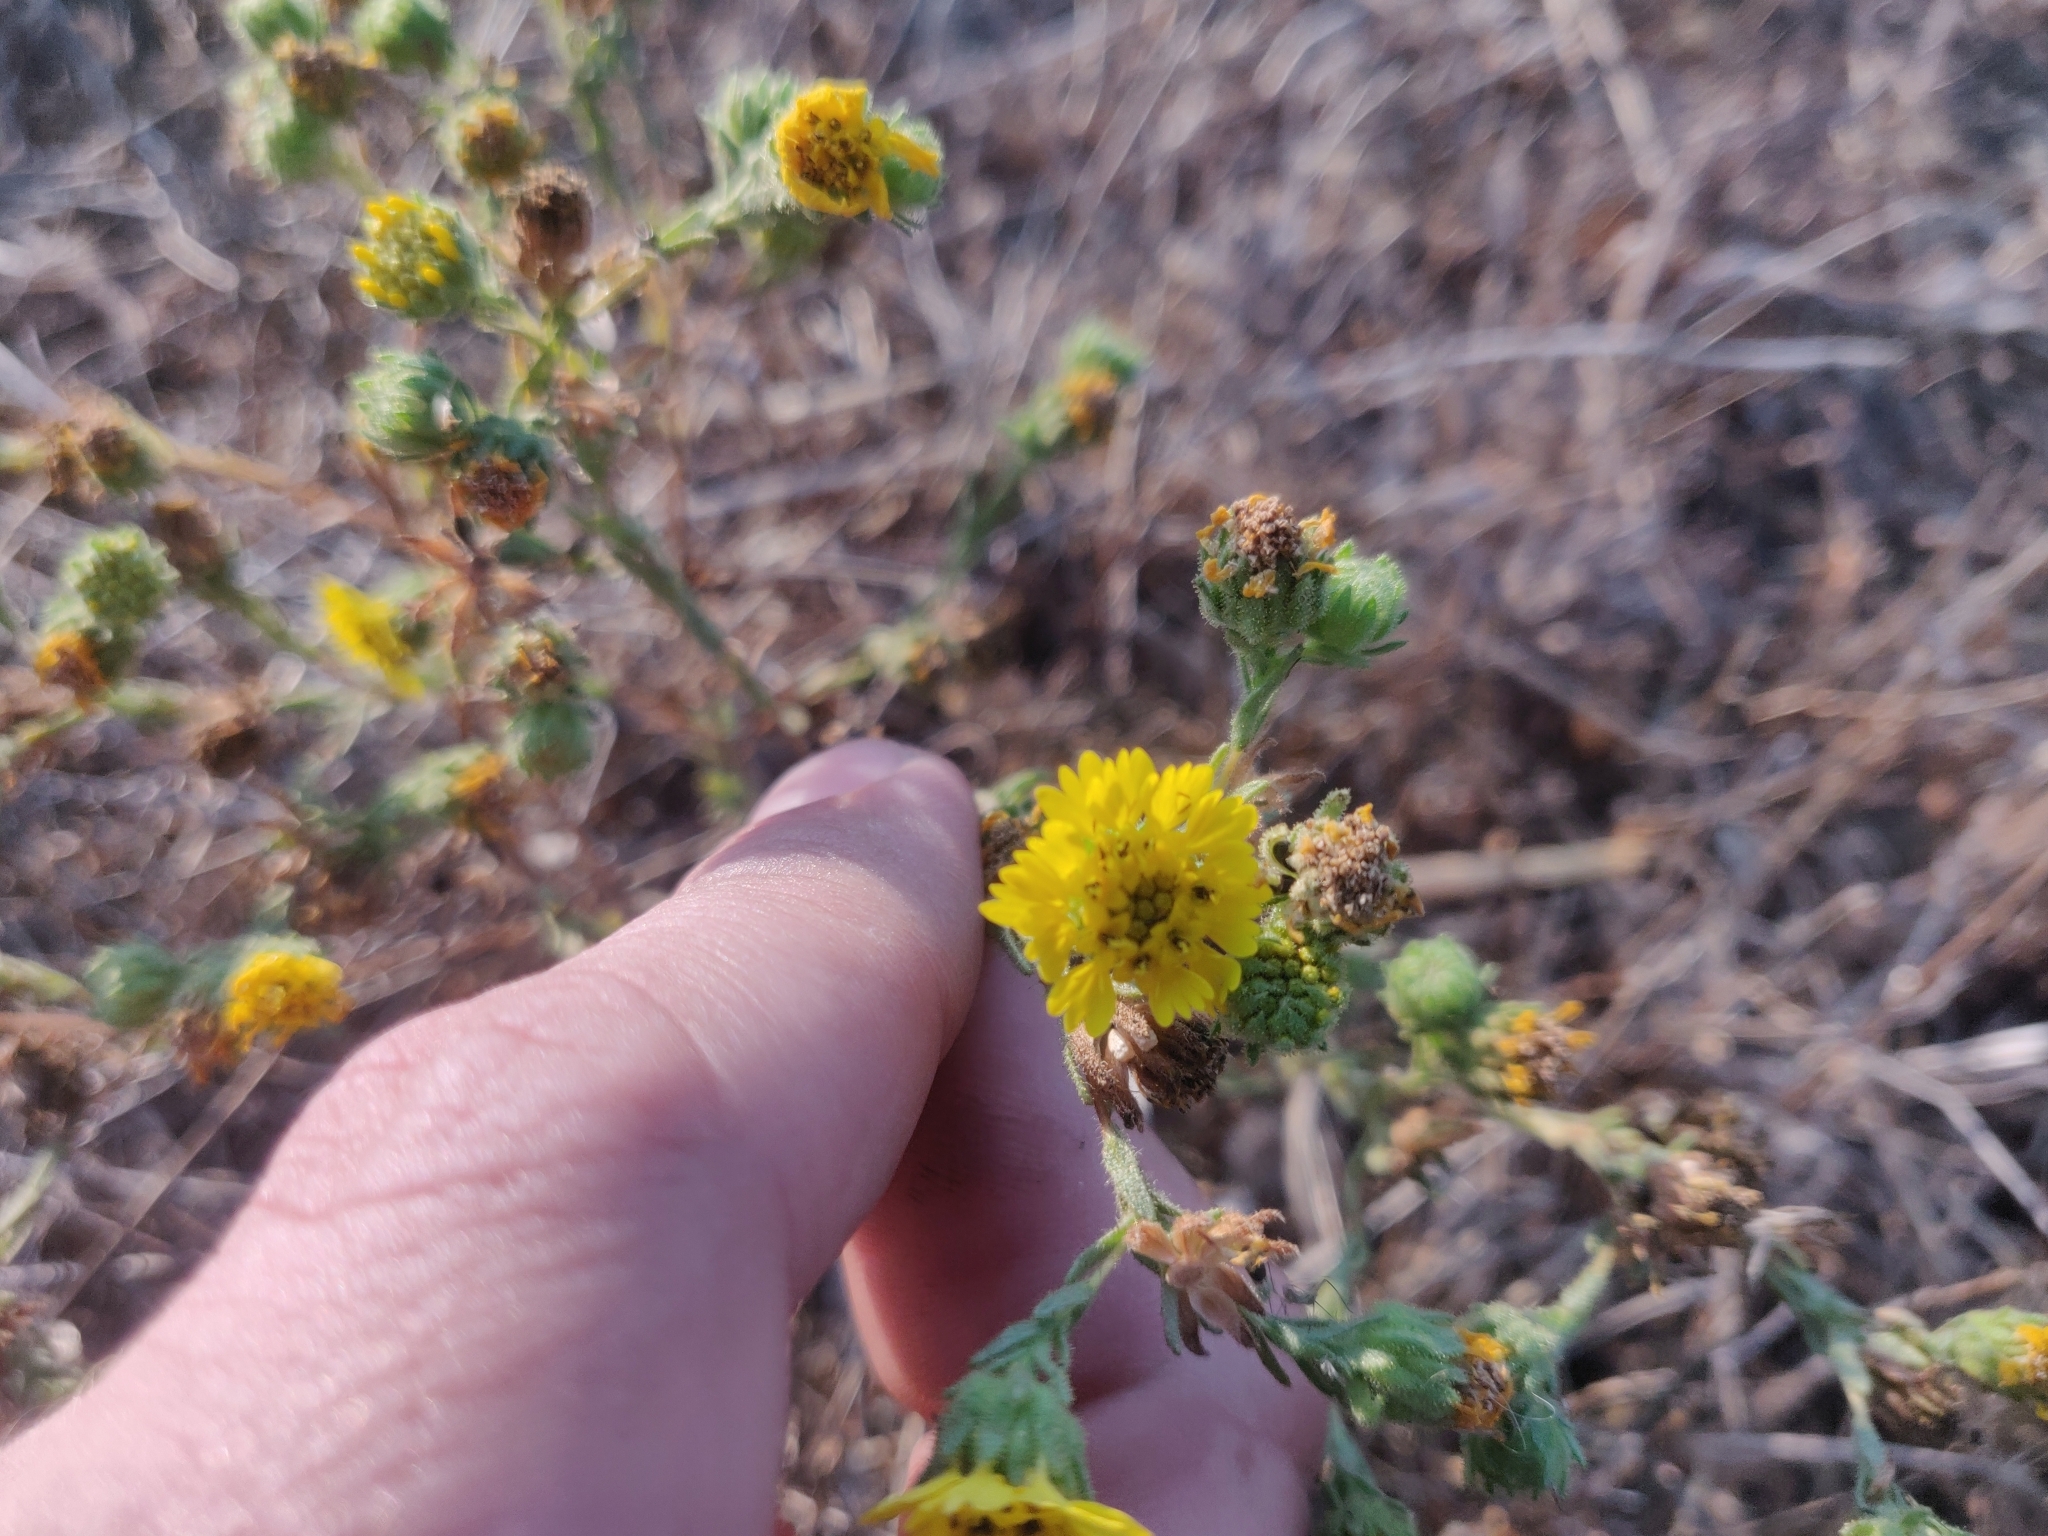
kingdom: Plantae
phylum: Tracheophyta
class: Magnoliopsida
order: Asterales
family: Asteraceae
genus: Deinandra
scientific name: Deinandra corymbosa
